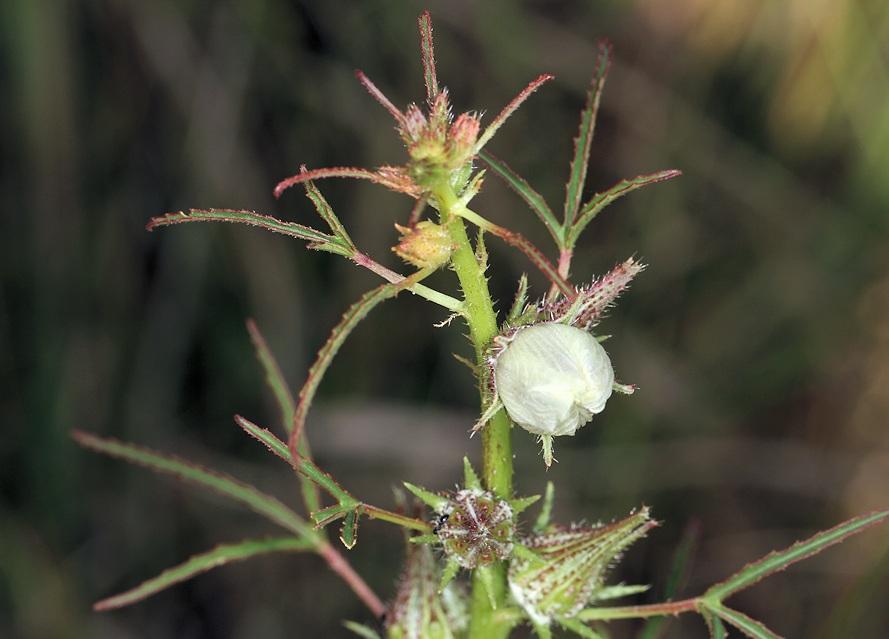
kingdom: Plantae
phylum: Tracheophyta
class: Magnoliopsida
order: Malvales
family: Malvaceae
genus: Hibiscus
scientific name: Hibiscus cannabinus
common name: Brown indianhemp
